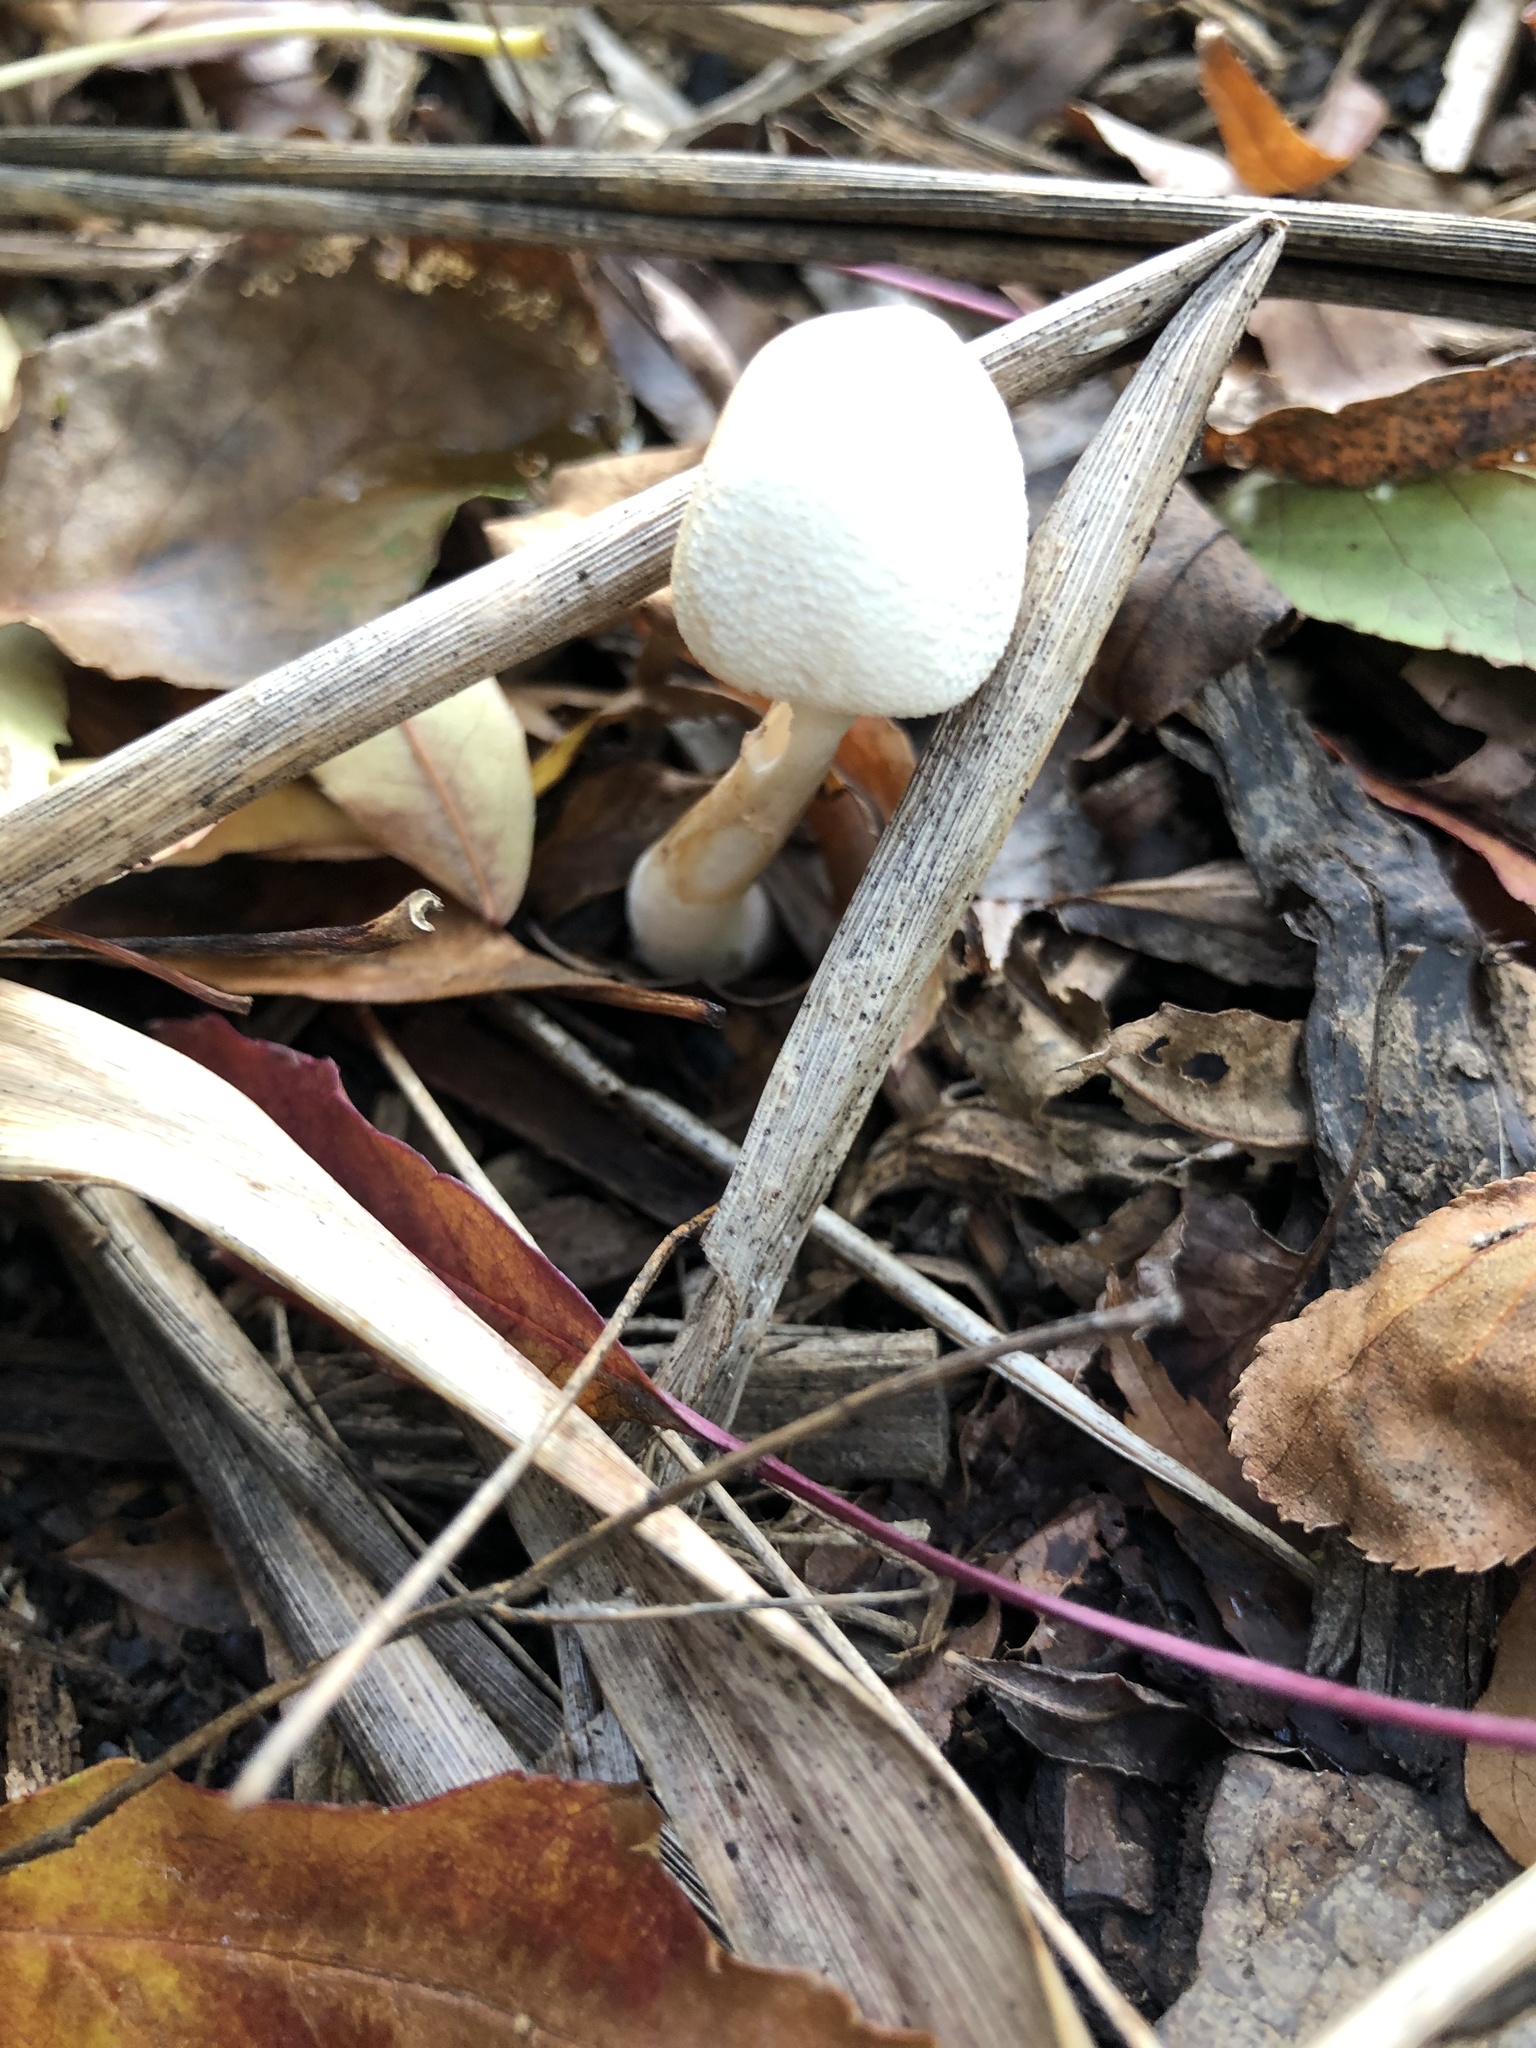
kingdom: Fungi
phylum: Basidiomycota
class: Agaricomycetes
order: Agaricales
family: Agaricaceae
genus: Leucocoprinus
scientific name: Leucocoprinus cepistipes
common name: Onion-stalk parasol
